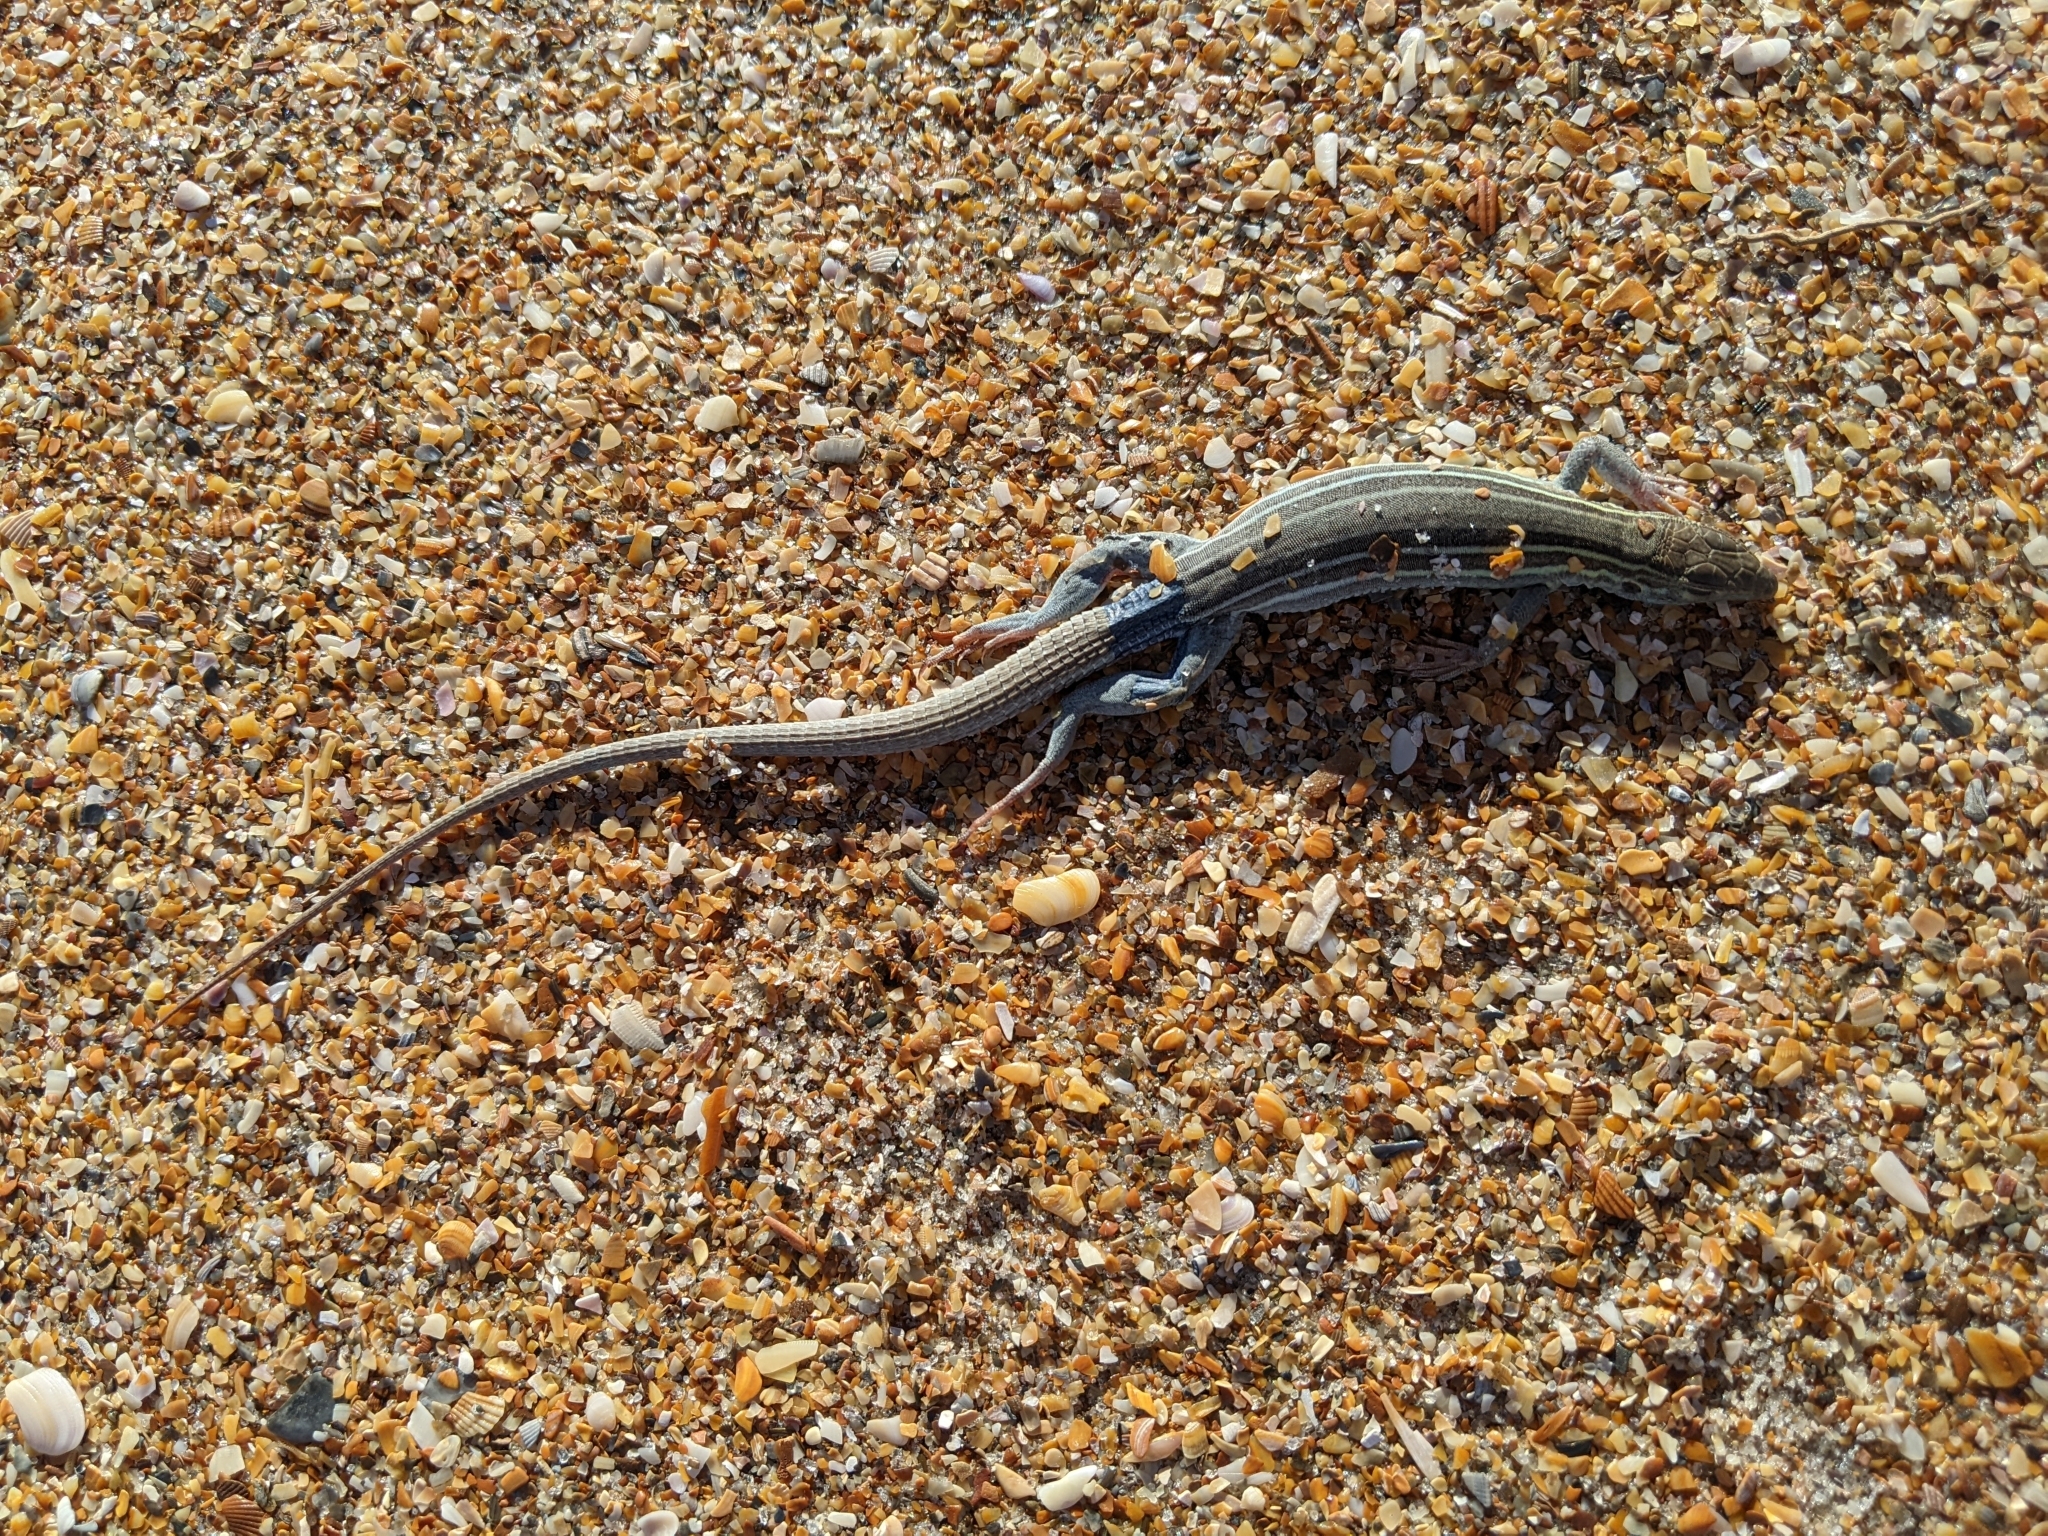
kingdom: Animalia
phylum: Chordata
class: Squamata
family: Teiidae
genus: Aspidoscelis
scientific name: Aspidoscelis sexlineatus
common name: Six-lined racerunner
